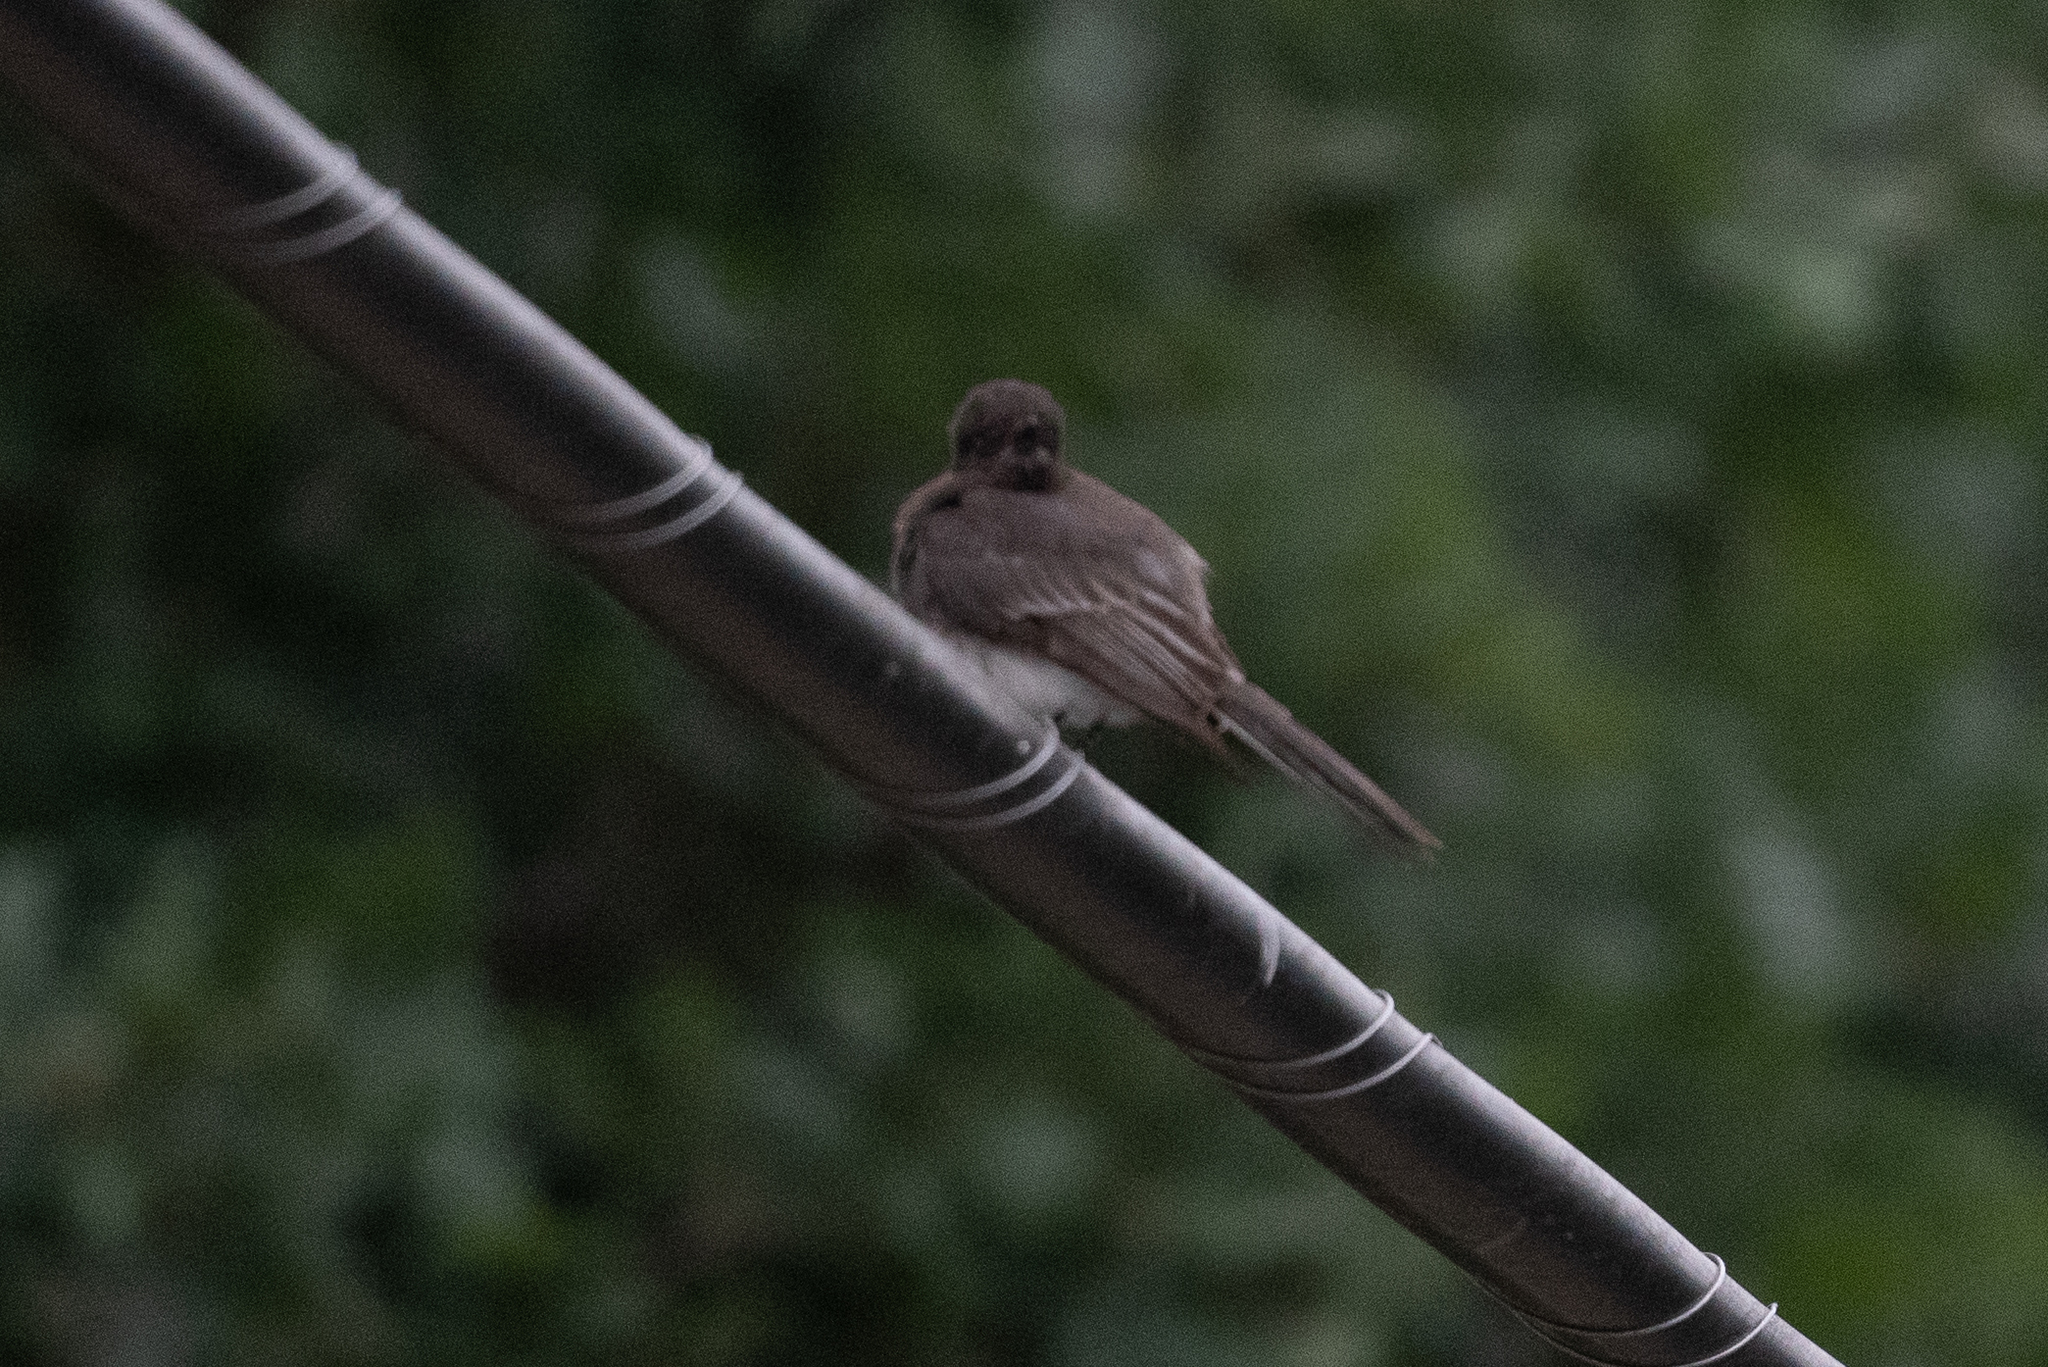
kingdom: Animalia
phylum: Chordata
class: Aves
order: Passeriformes
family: Tyrannidae
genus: Sayornis
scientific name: Sayornis nigricans
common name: Black phoebe
